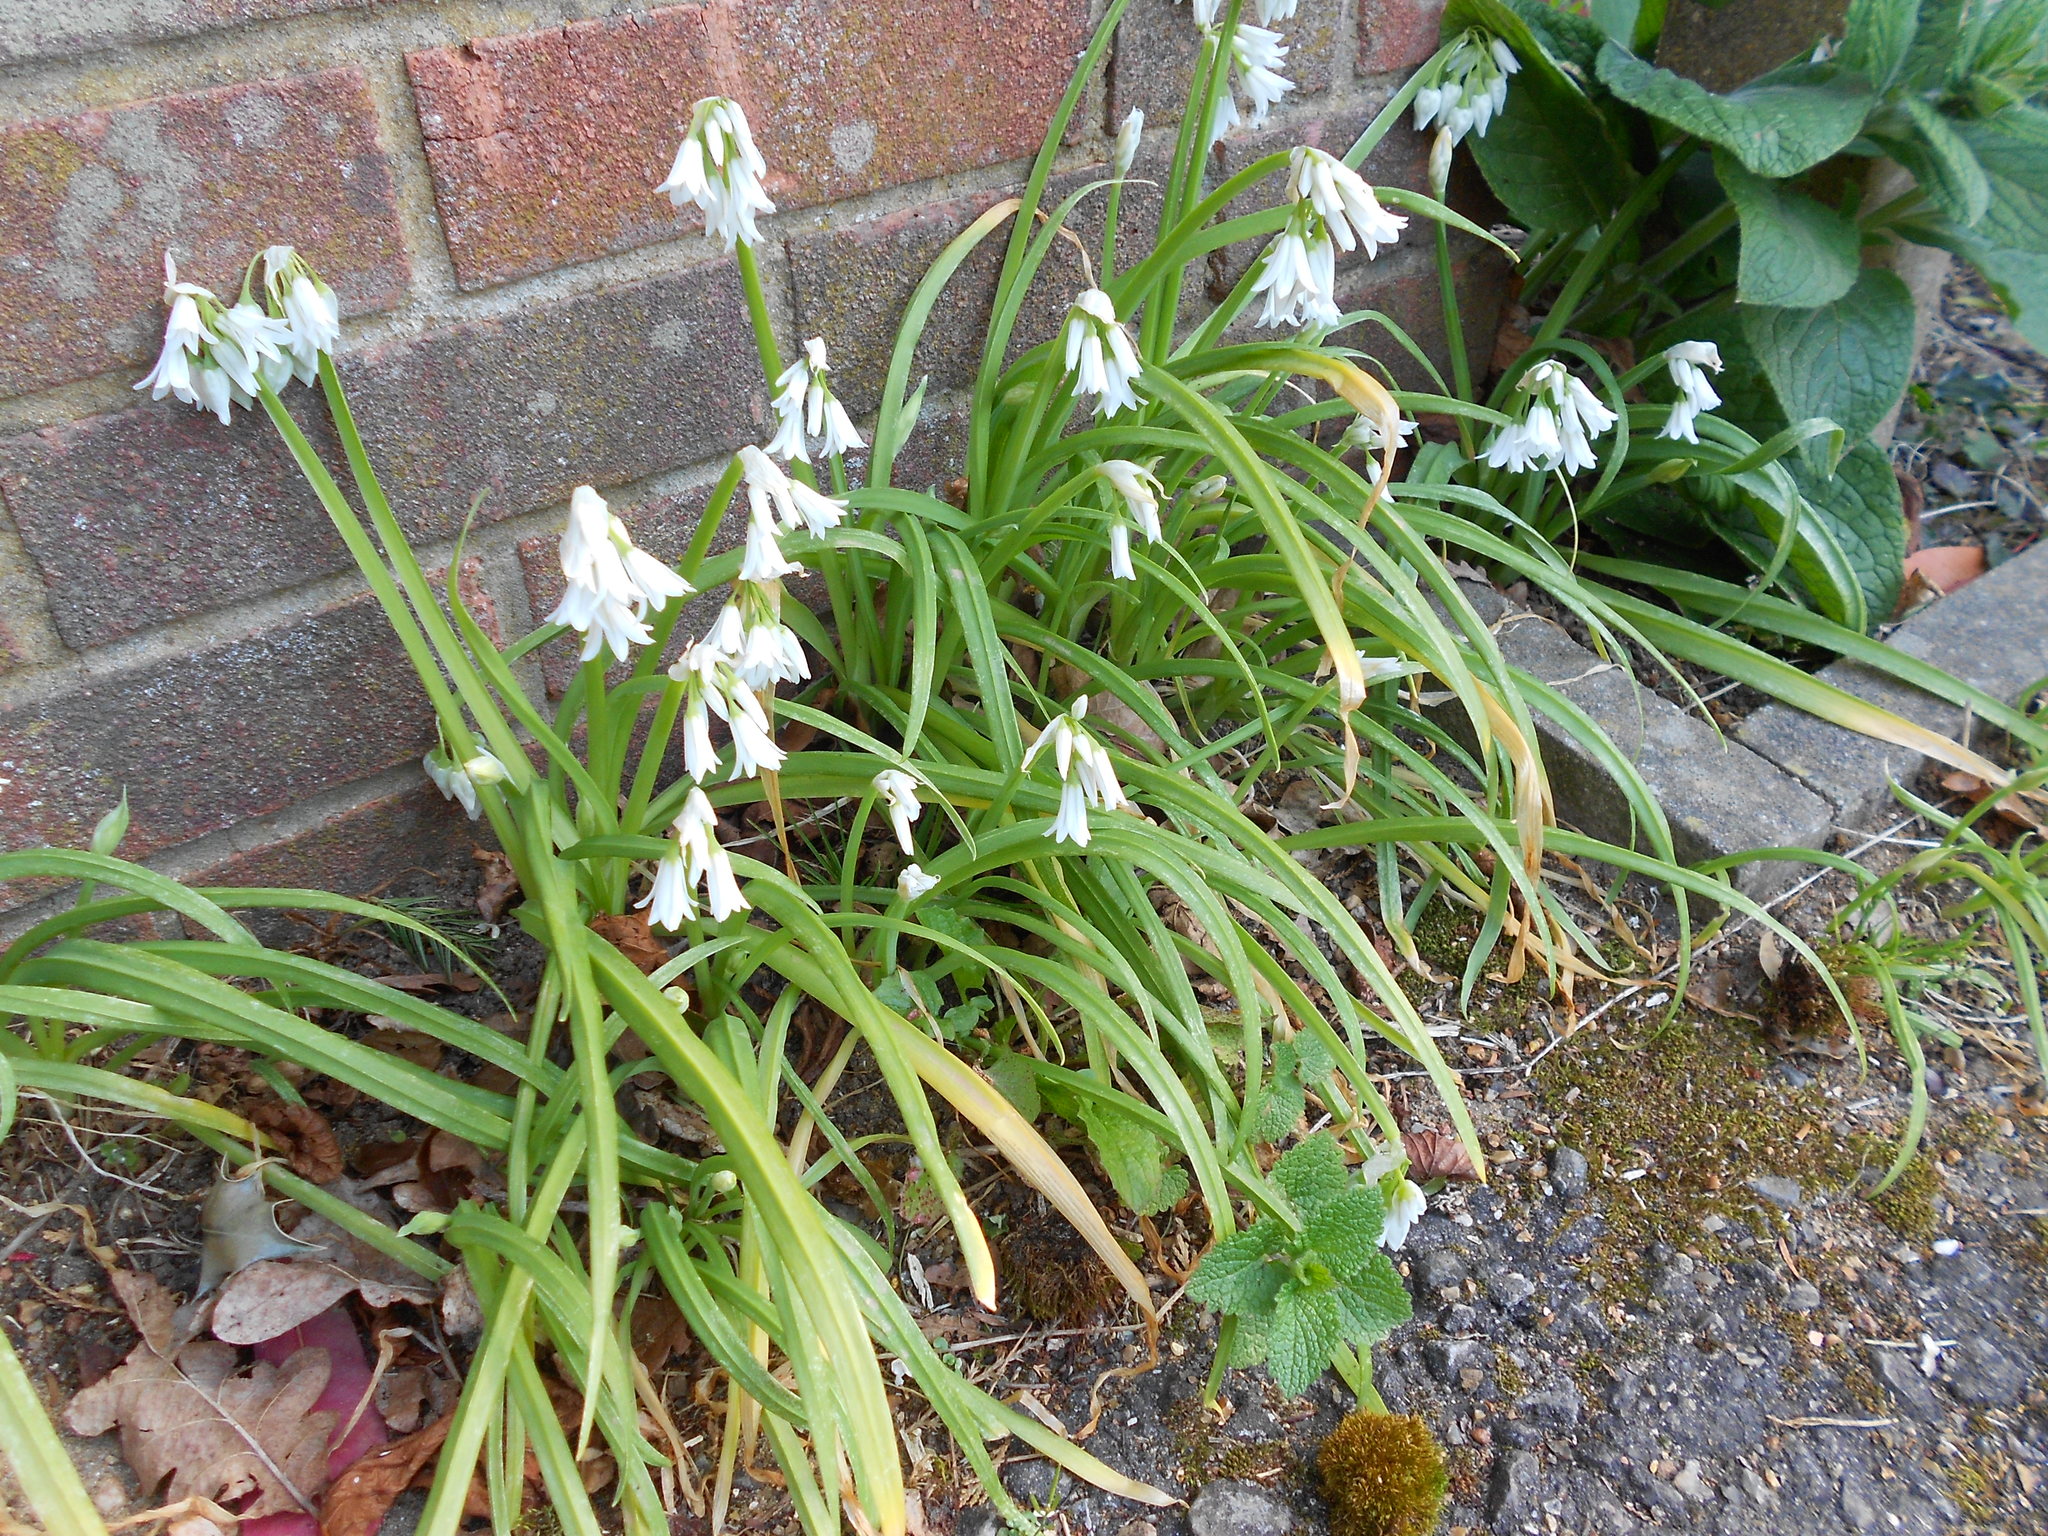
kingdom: Plantae
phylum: Tracheophyta
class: Liliopsida
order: Asparagales
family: Amaryllidaceae
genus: Allium
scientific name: Allium triquetrum
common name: Three-cornered garlic
